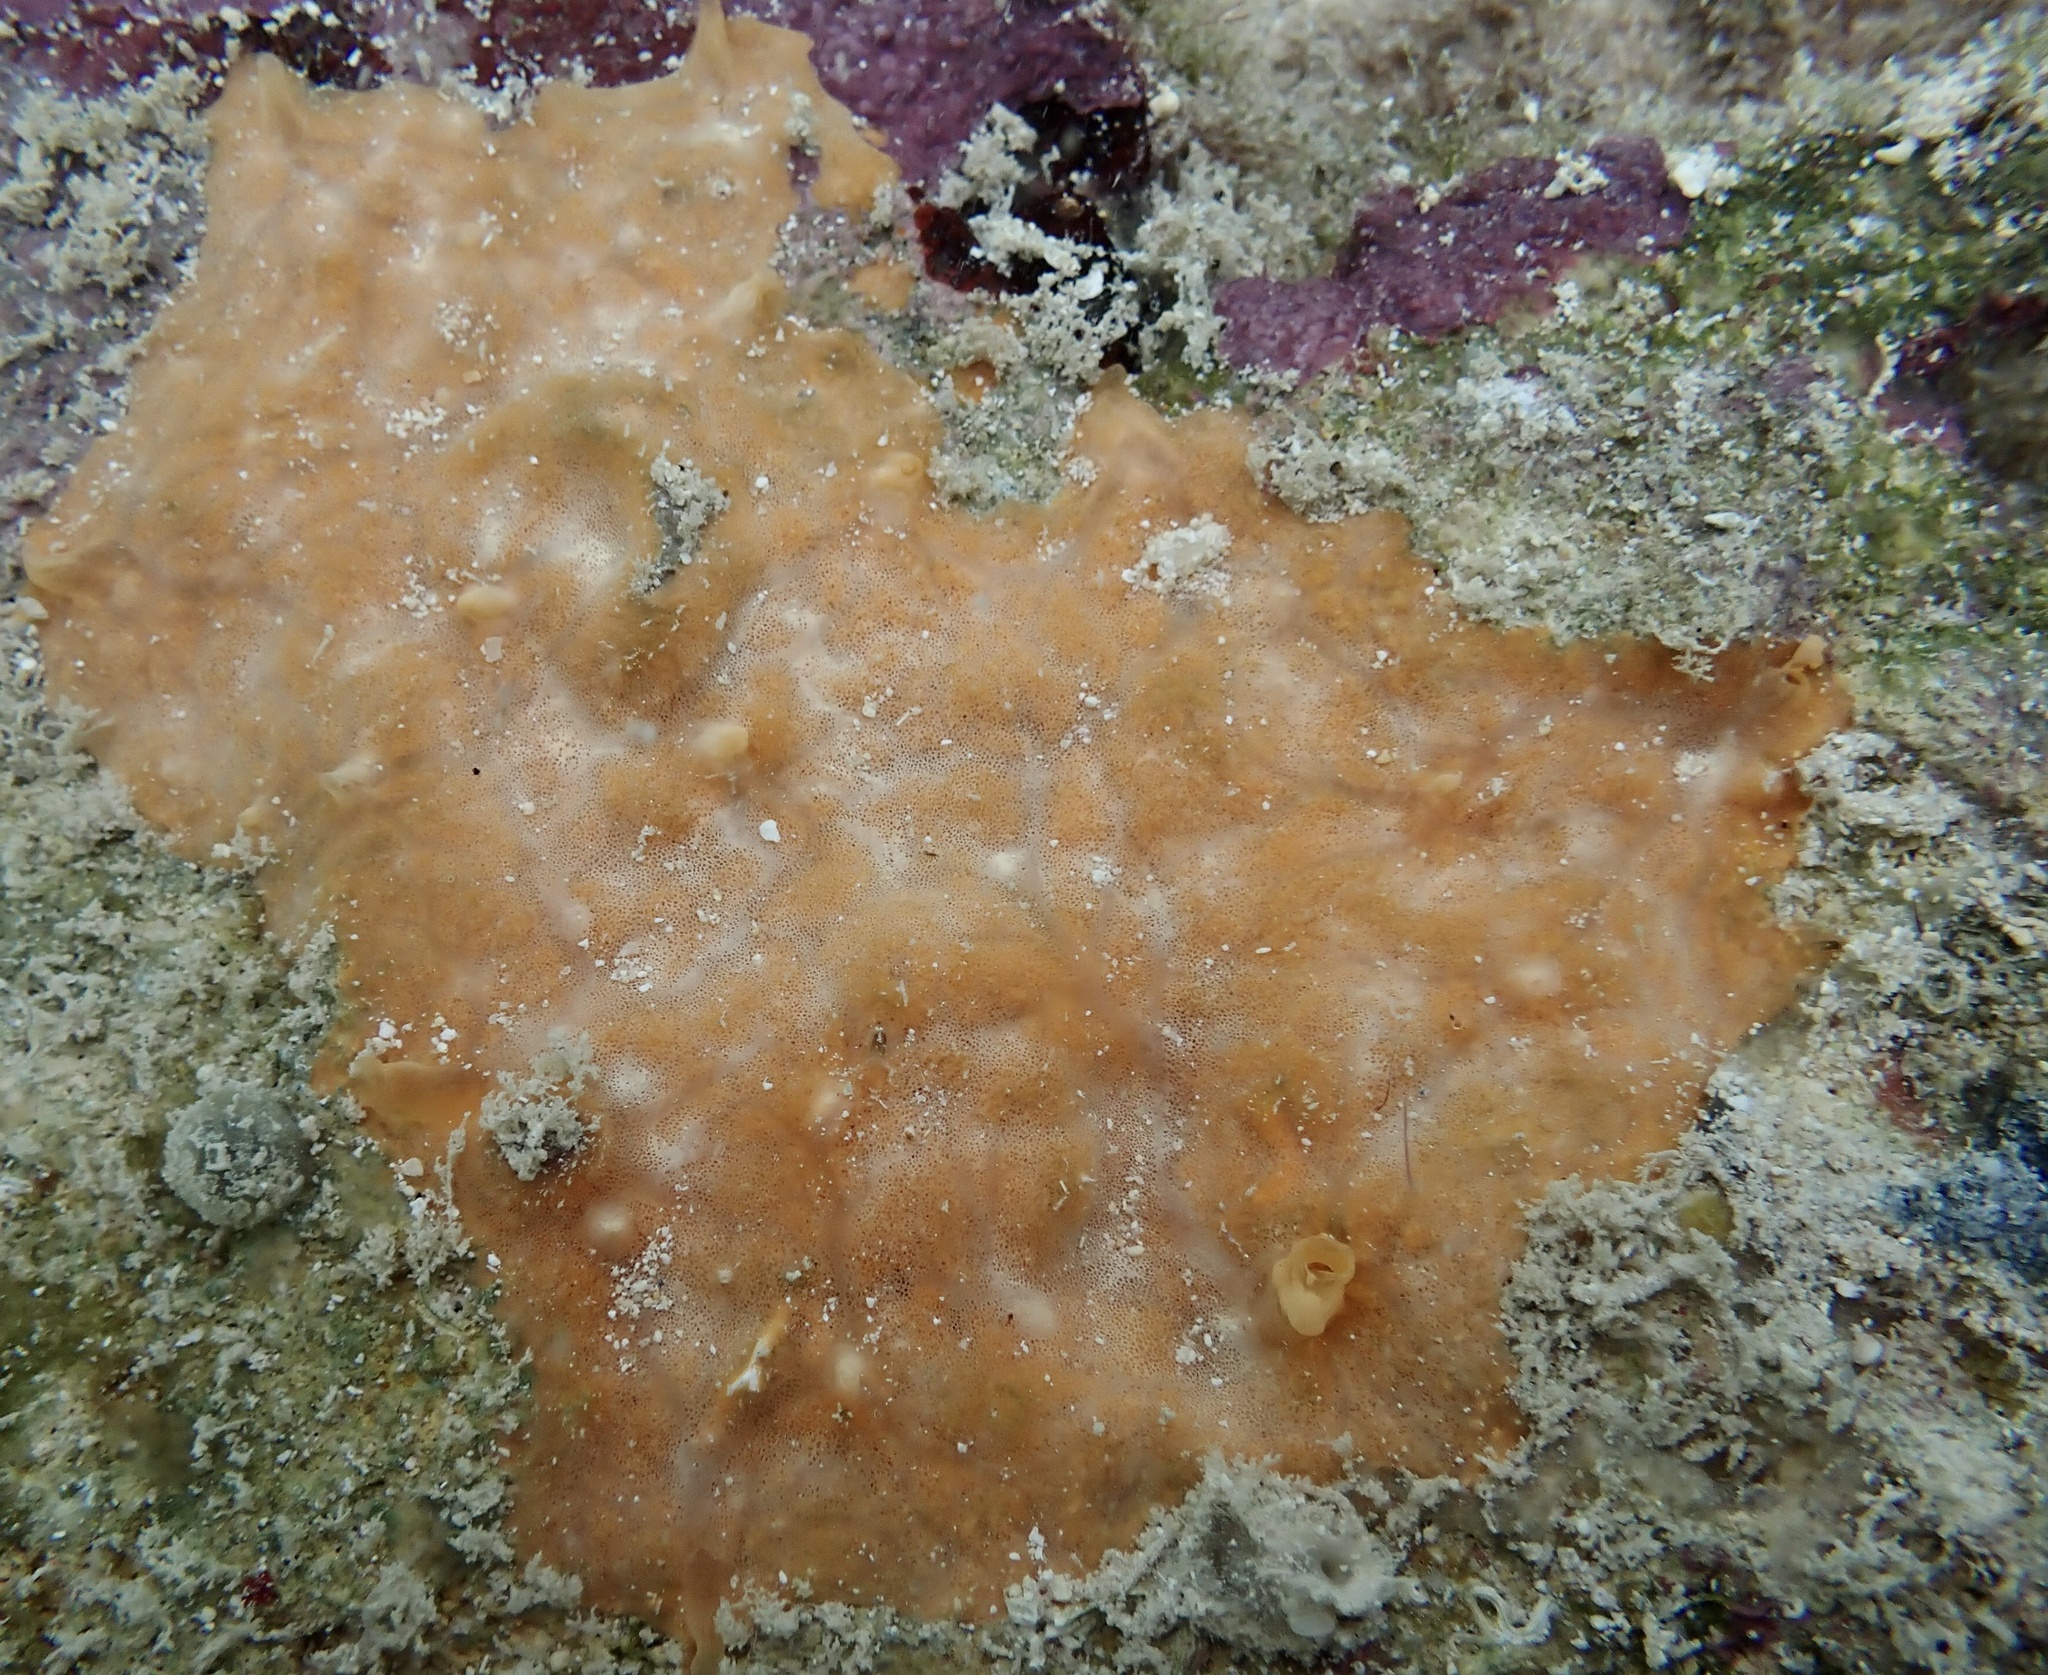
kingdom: Animalia
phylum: Porifera
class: Demospongiae
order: Agelasida
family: Hymerhabdiidae
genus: Prosuberites
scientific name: Prosuberites carriebowensis
